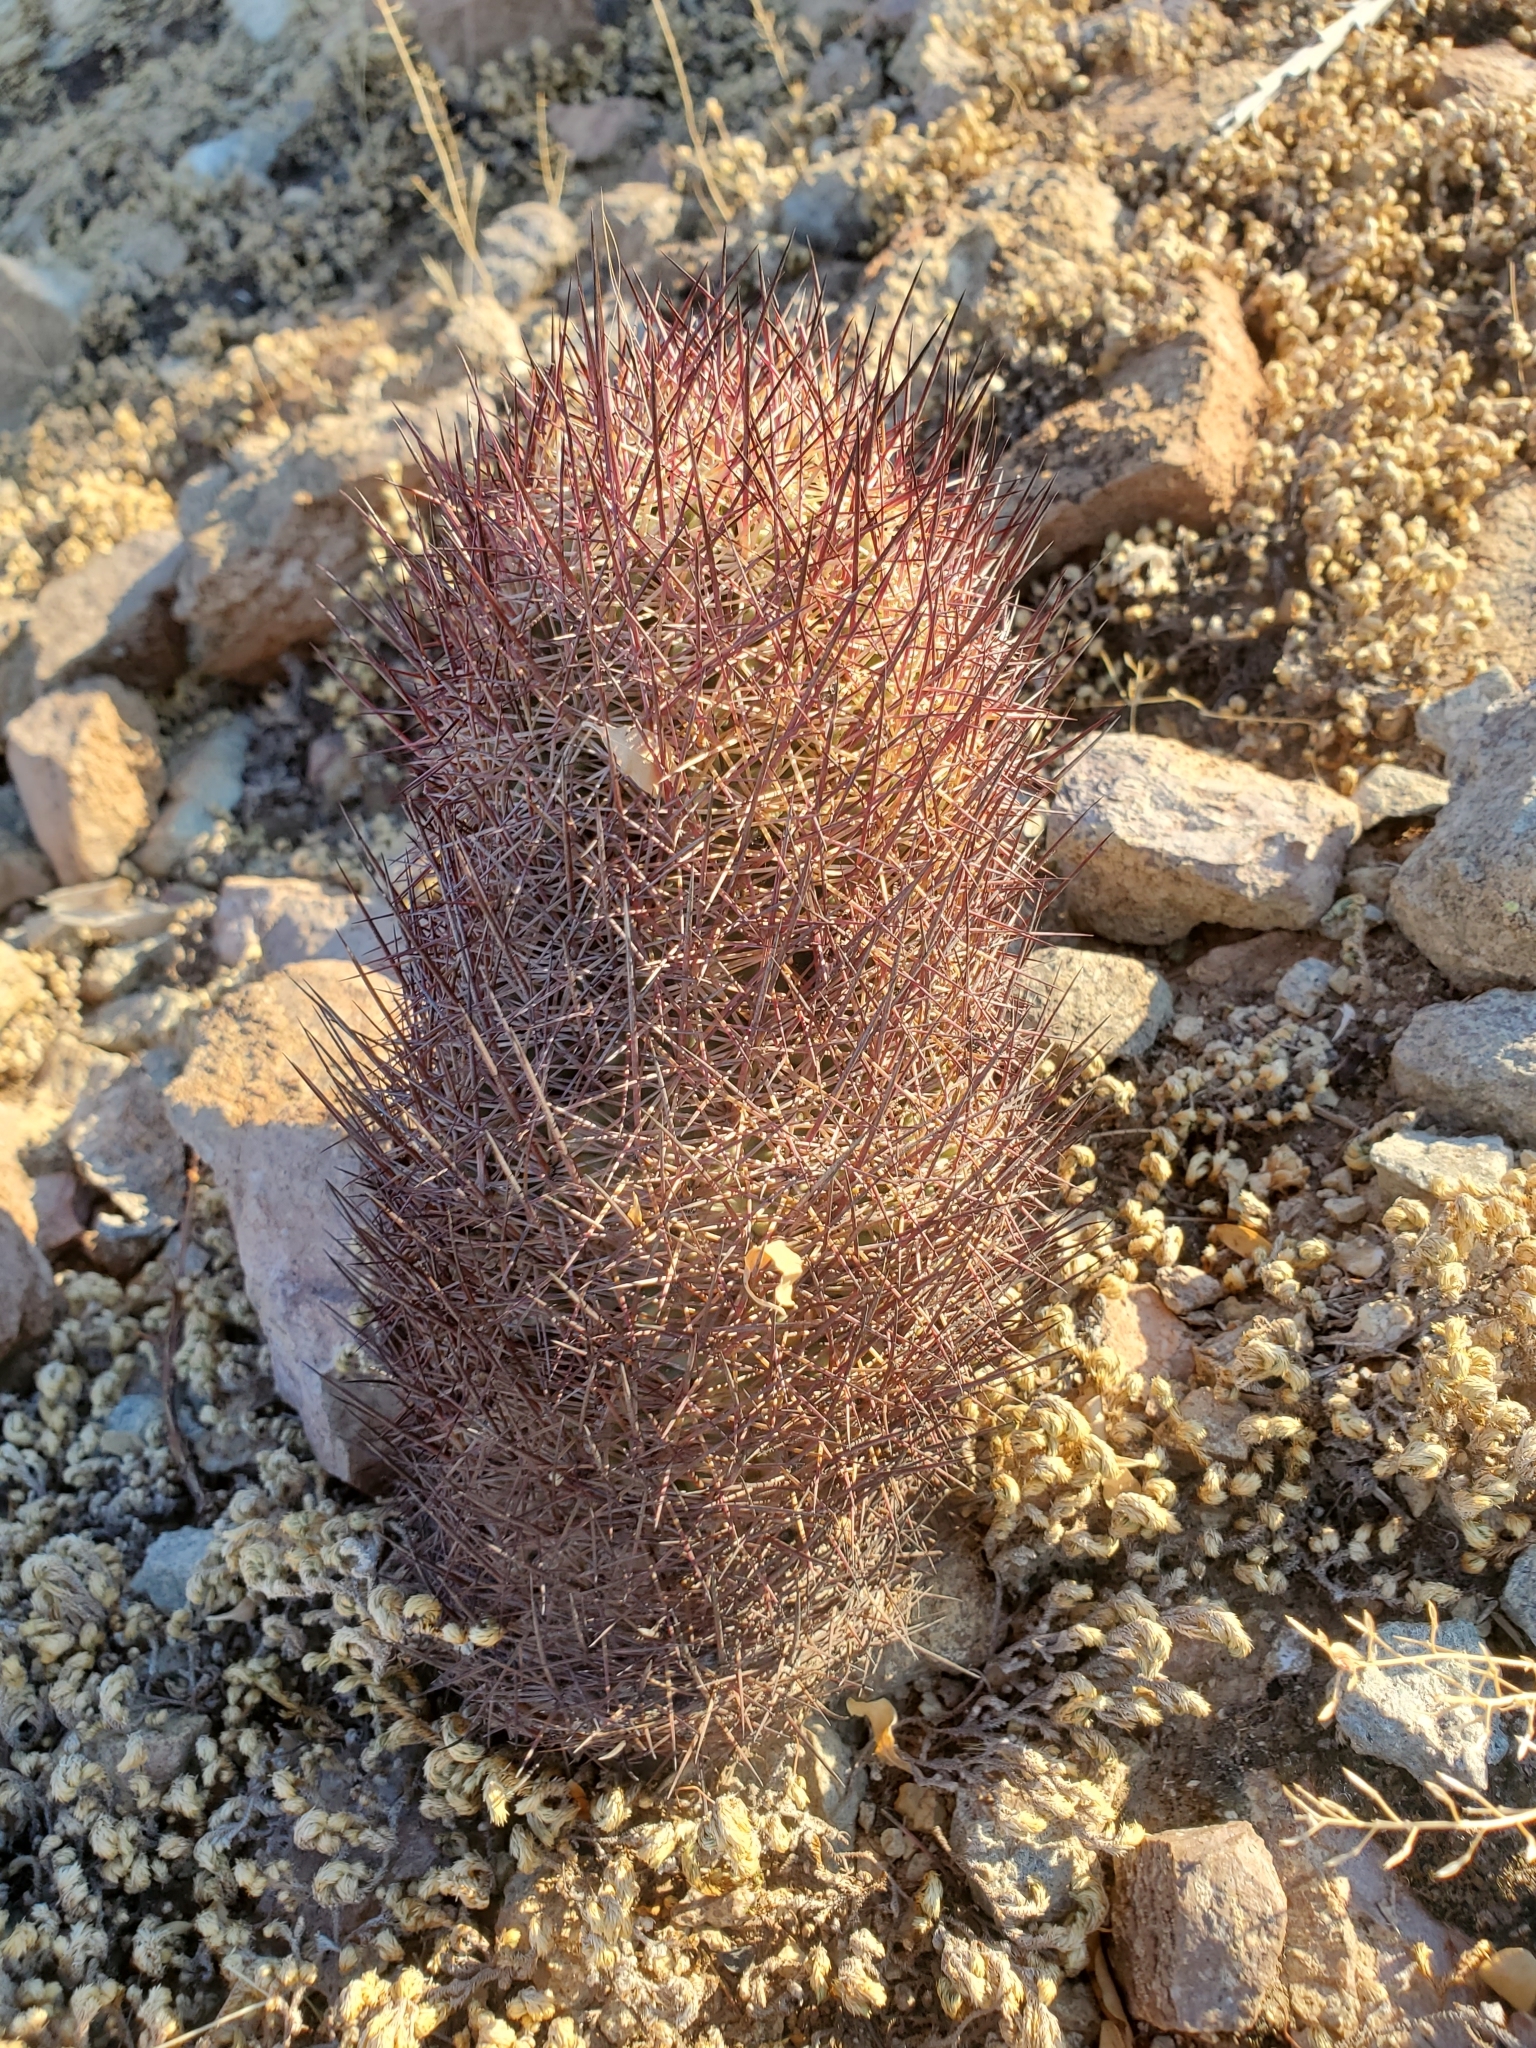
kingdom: Plantae
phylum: Tracheophyta
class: Magnoliopsida
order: Caryophyllales
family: Cactaceae
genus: Sclerocactus
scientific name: Sclerocactus johnsonii
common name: Eight-spine fishhook cactus
